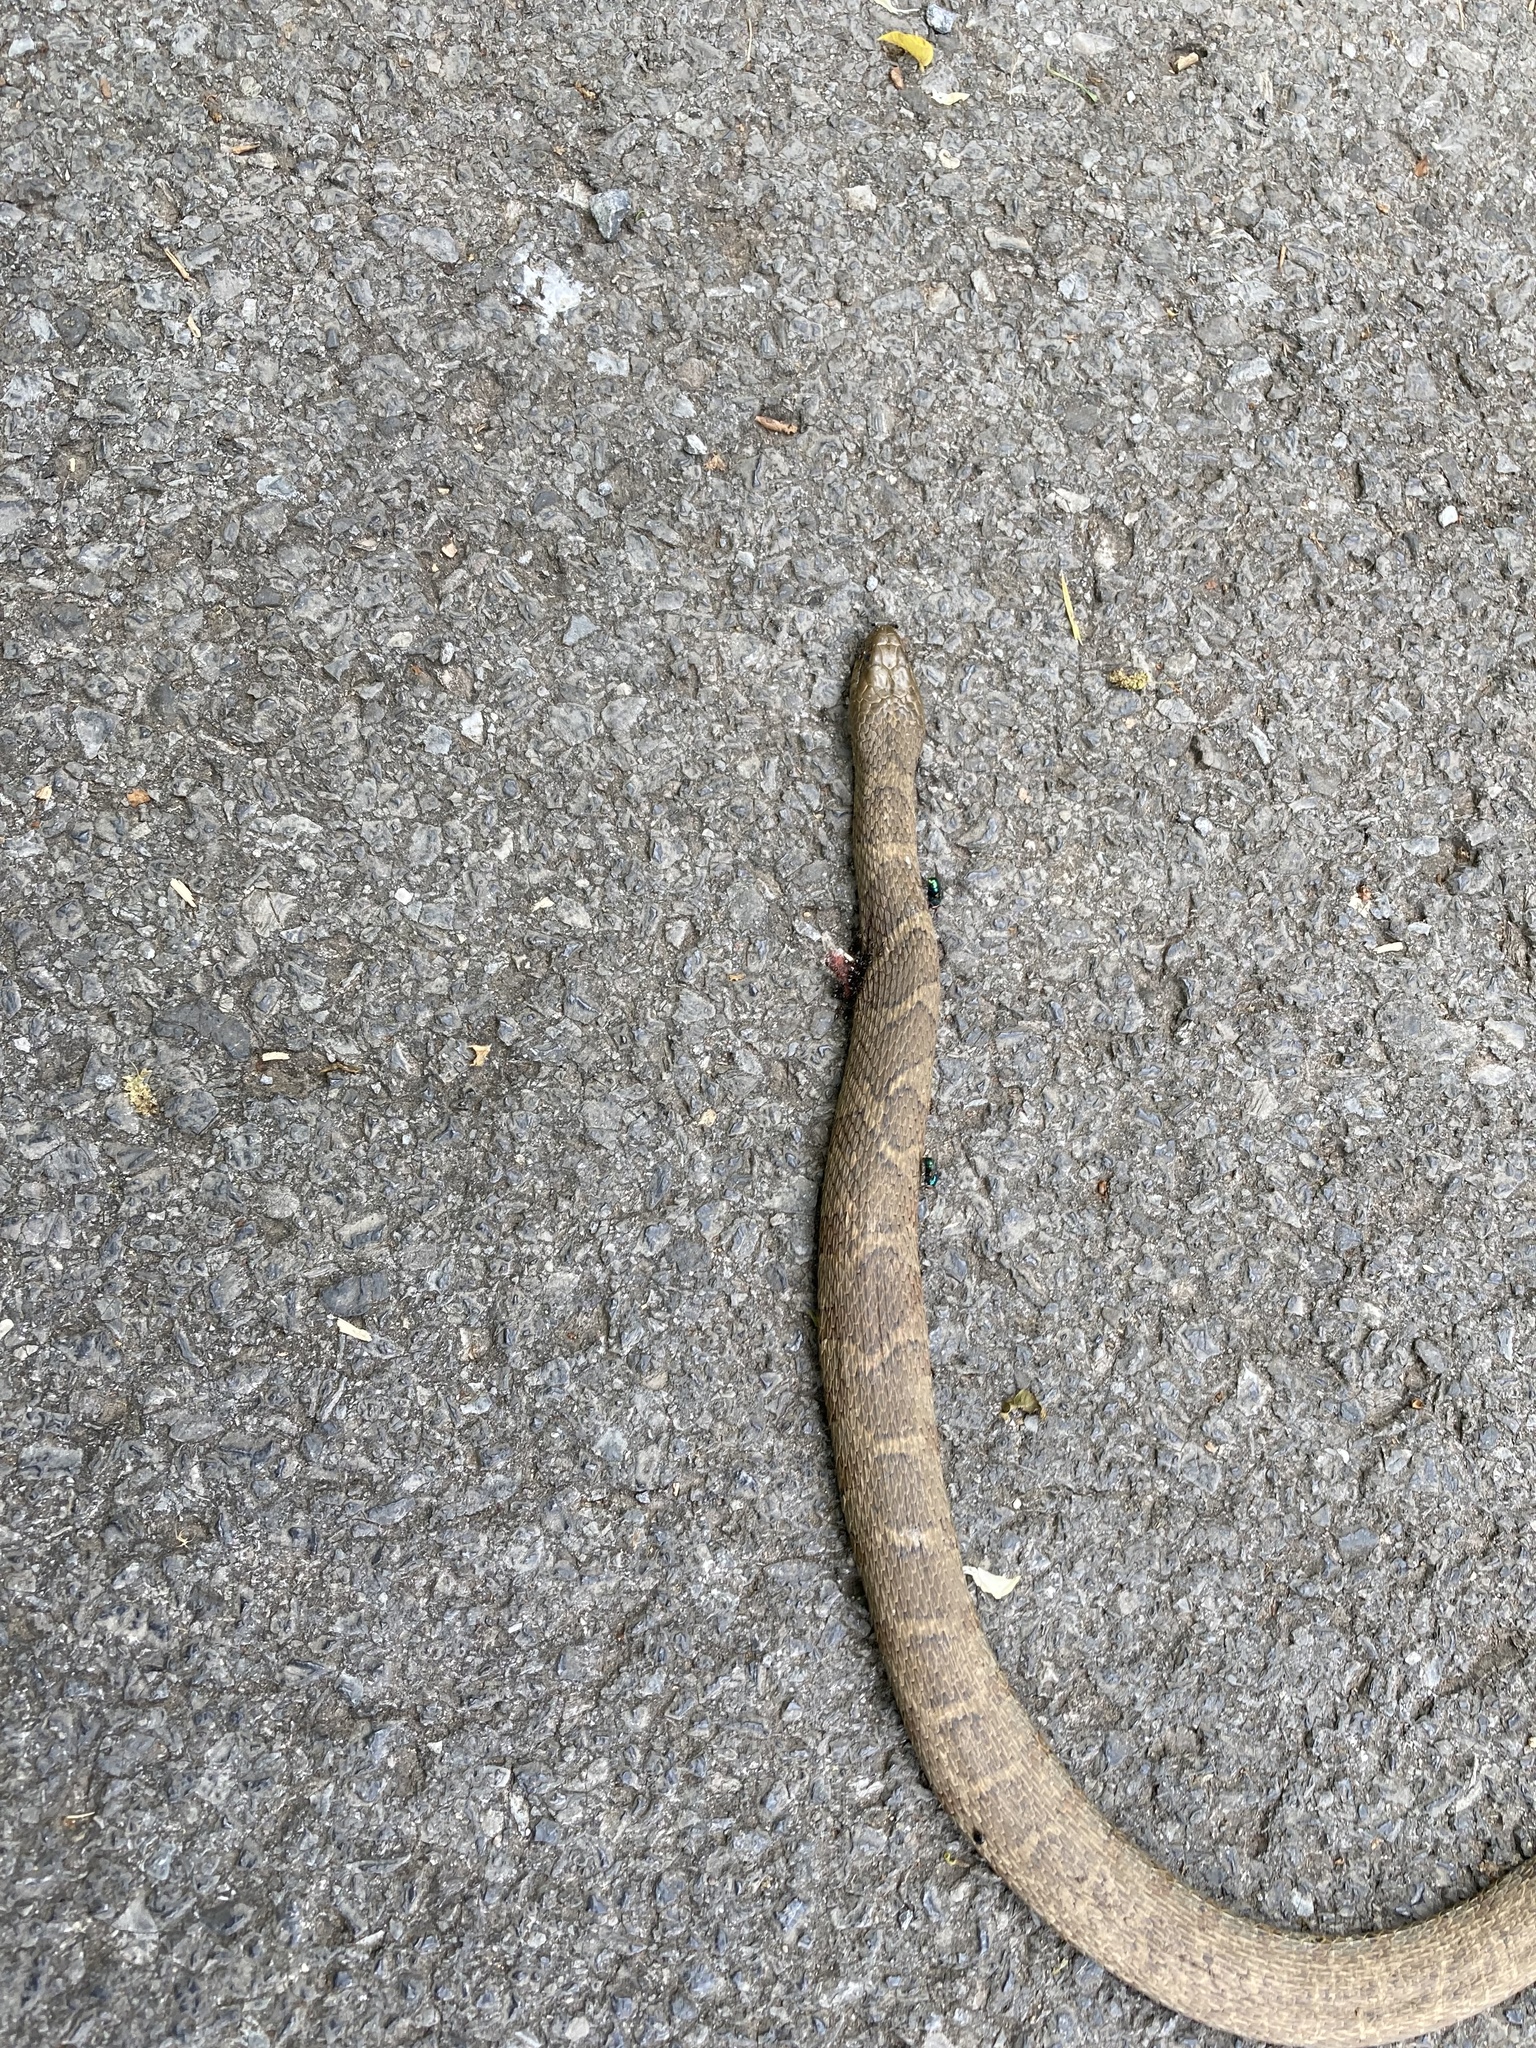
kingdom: Animalia
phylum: Chordata
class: Squamata
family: Colubridae
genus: Nerodia
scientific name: Nerodia sipedon
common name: Northern water snake
